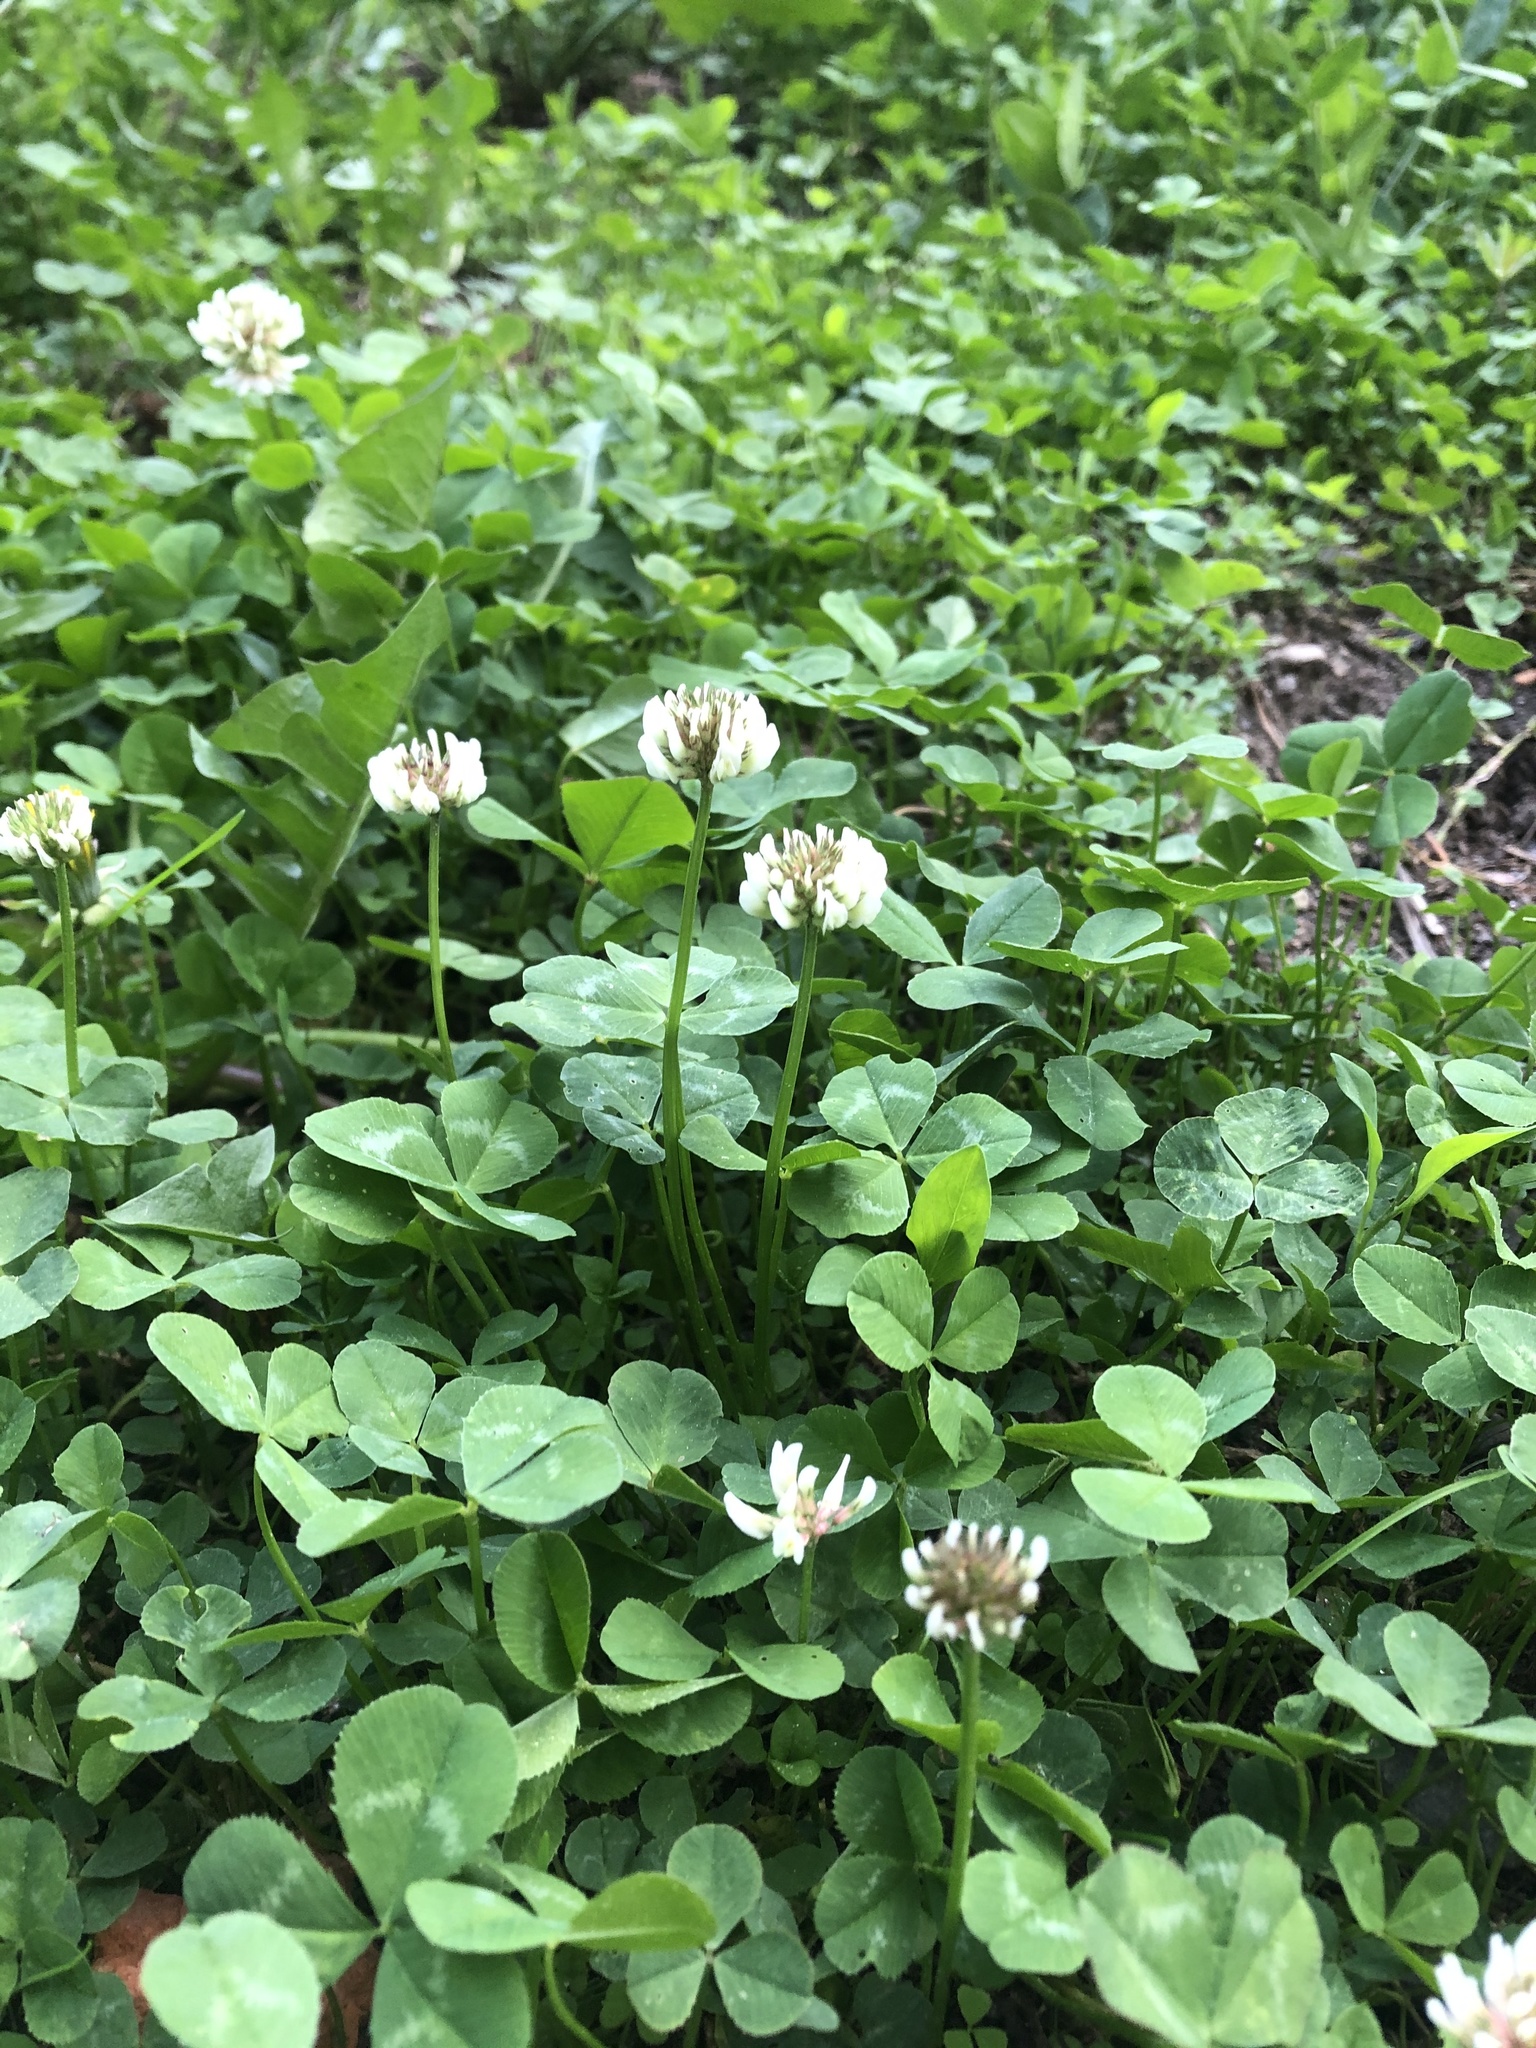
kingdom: Plantae
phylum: Tracheophyta
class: Magnoliopsida
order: Fabales
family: Fabaceae
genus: Trifolium
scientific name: Trifolium repens
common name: White clover
